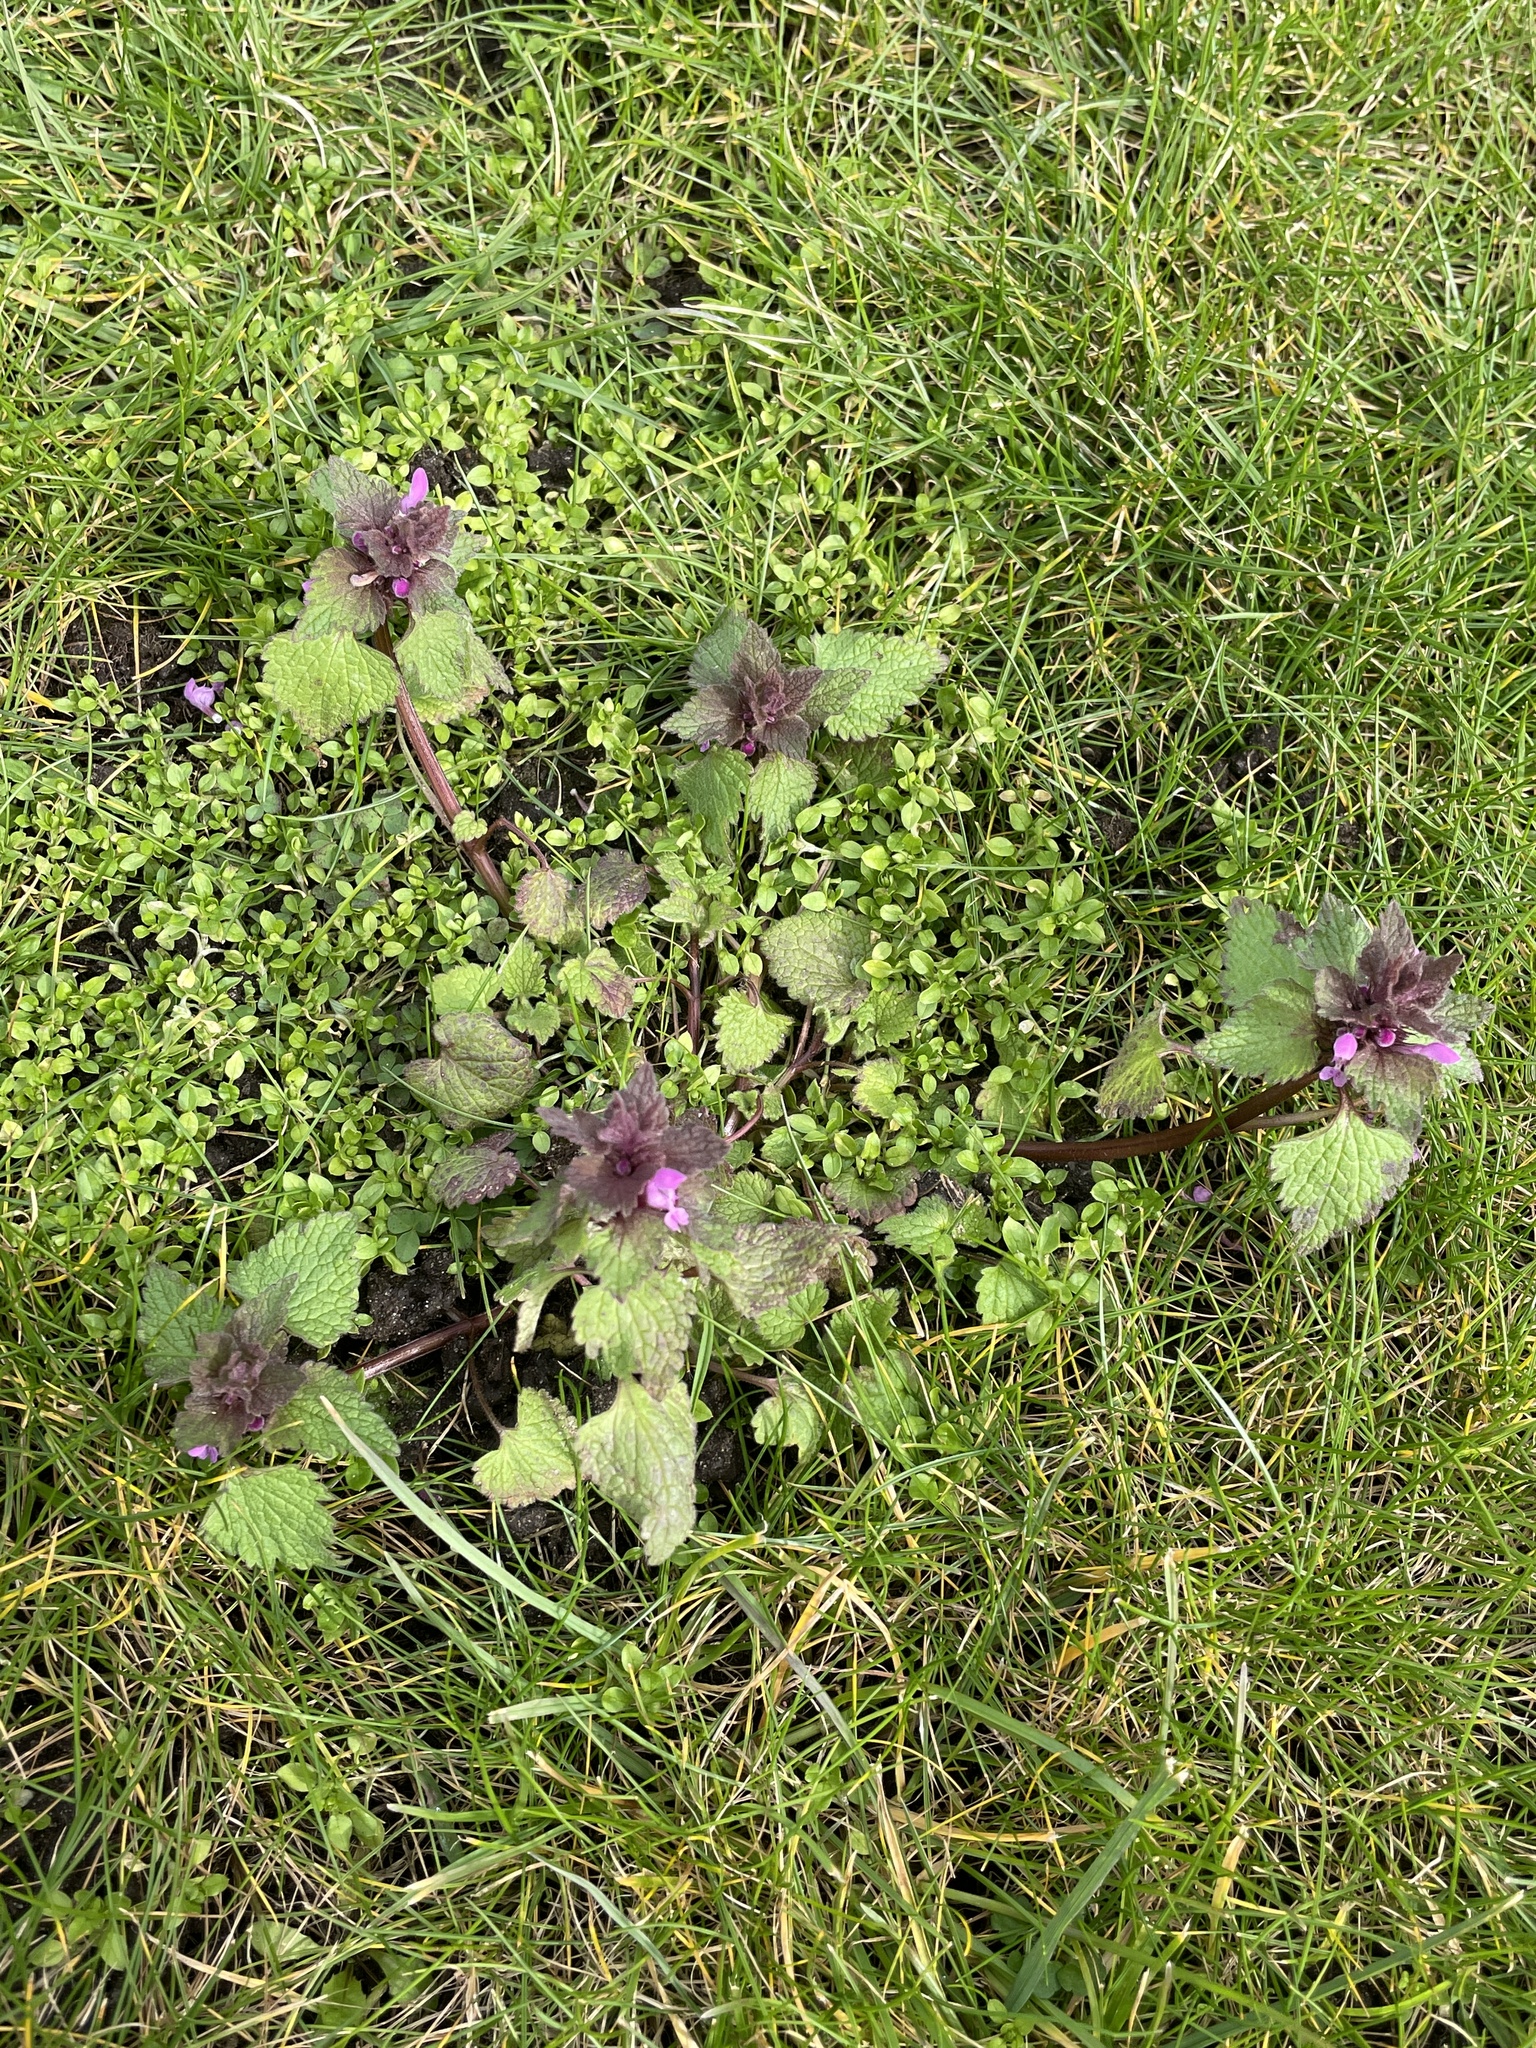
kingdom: Plantae
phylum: Tracheophyta
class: Magnoliopsida
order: Lamiales
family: Lamiaceae
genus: Lamium
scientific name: Lamium purpureum
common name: Red dead-nettle
